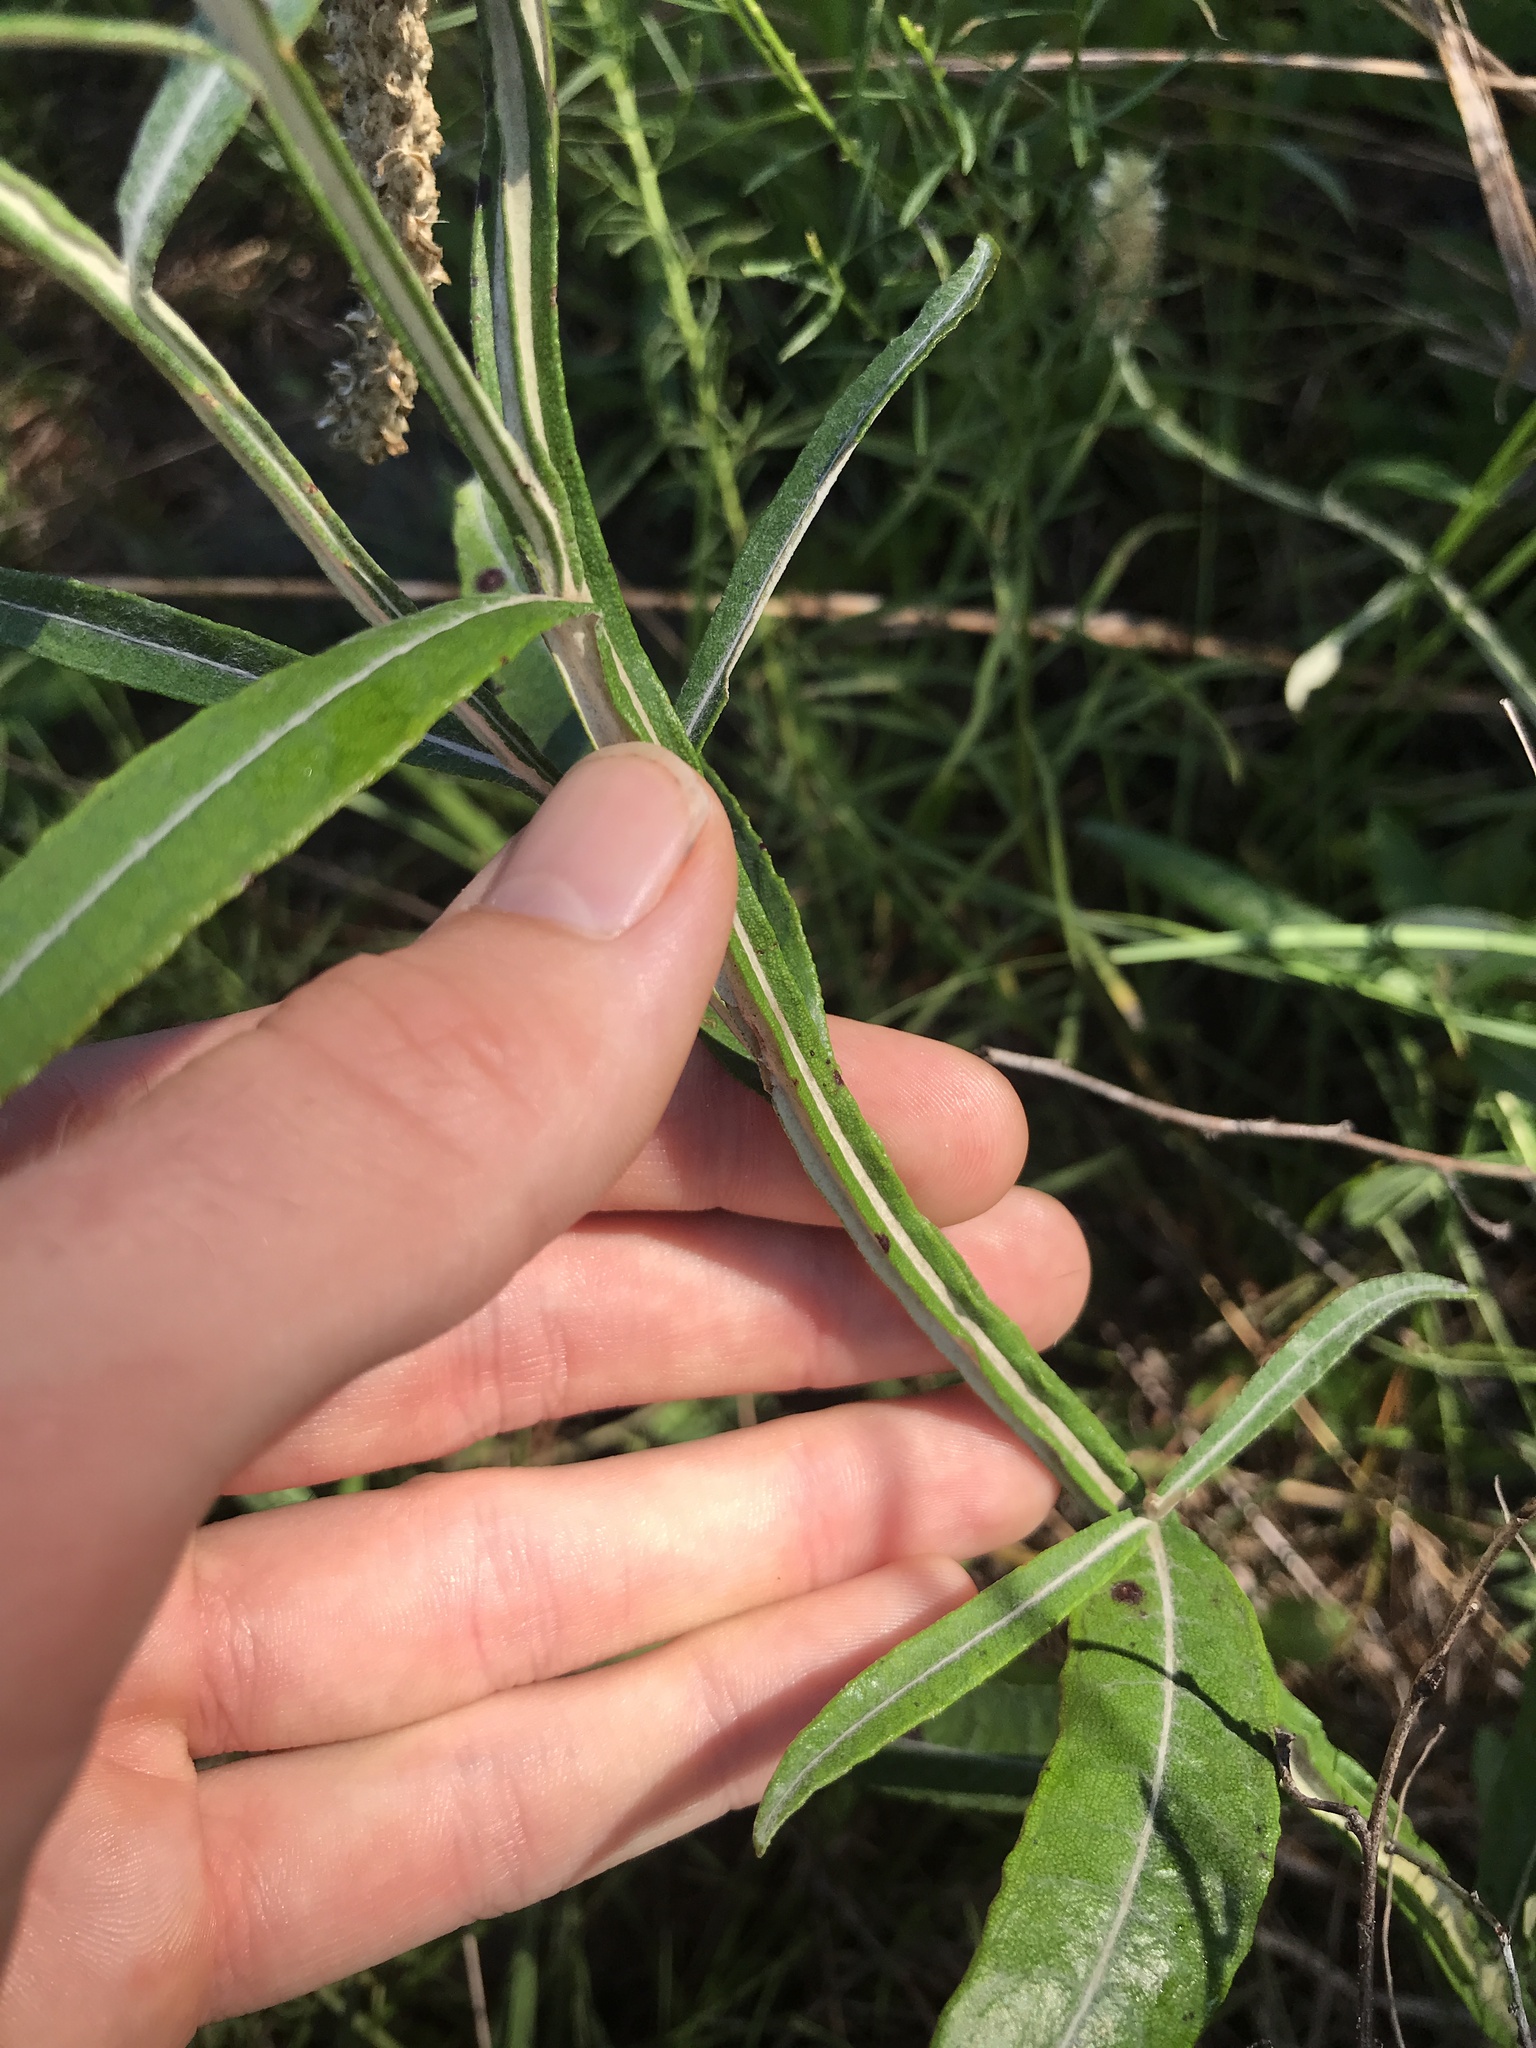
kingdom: Plantae
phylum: Tracheophyta
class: Magnoliopsida
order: Asterales
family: Asteraceae
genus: Pterocaulon
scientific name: Pterocaulon pycnostachyum
